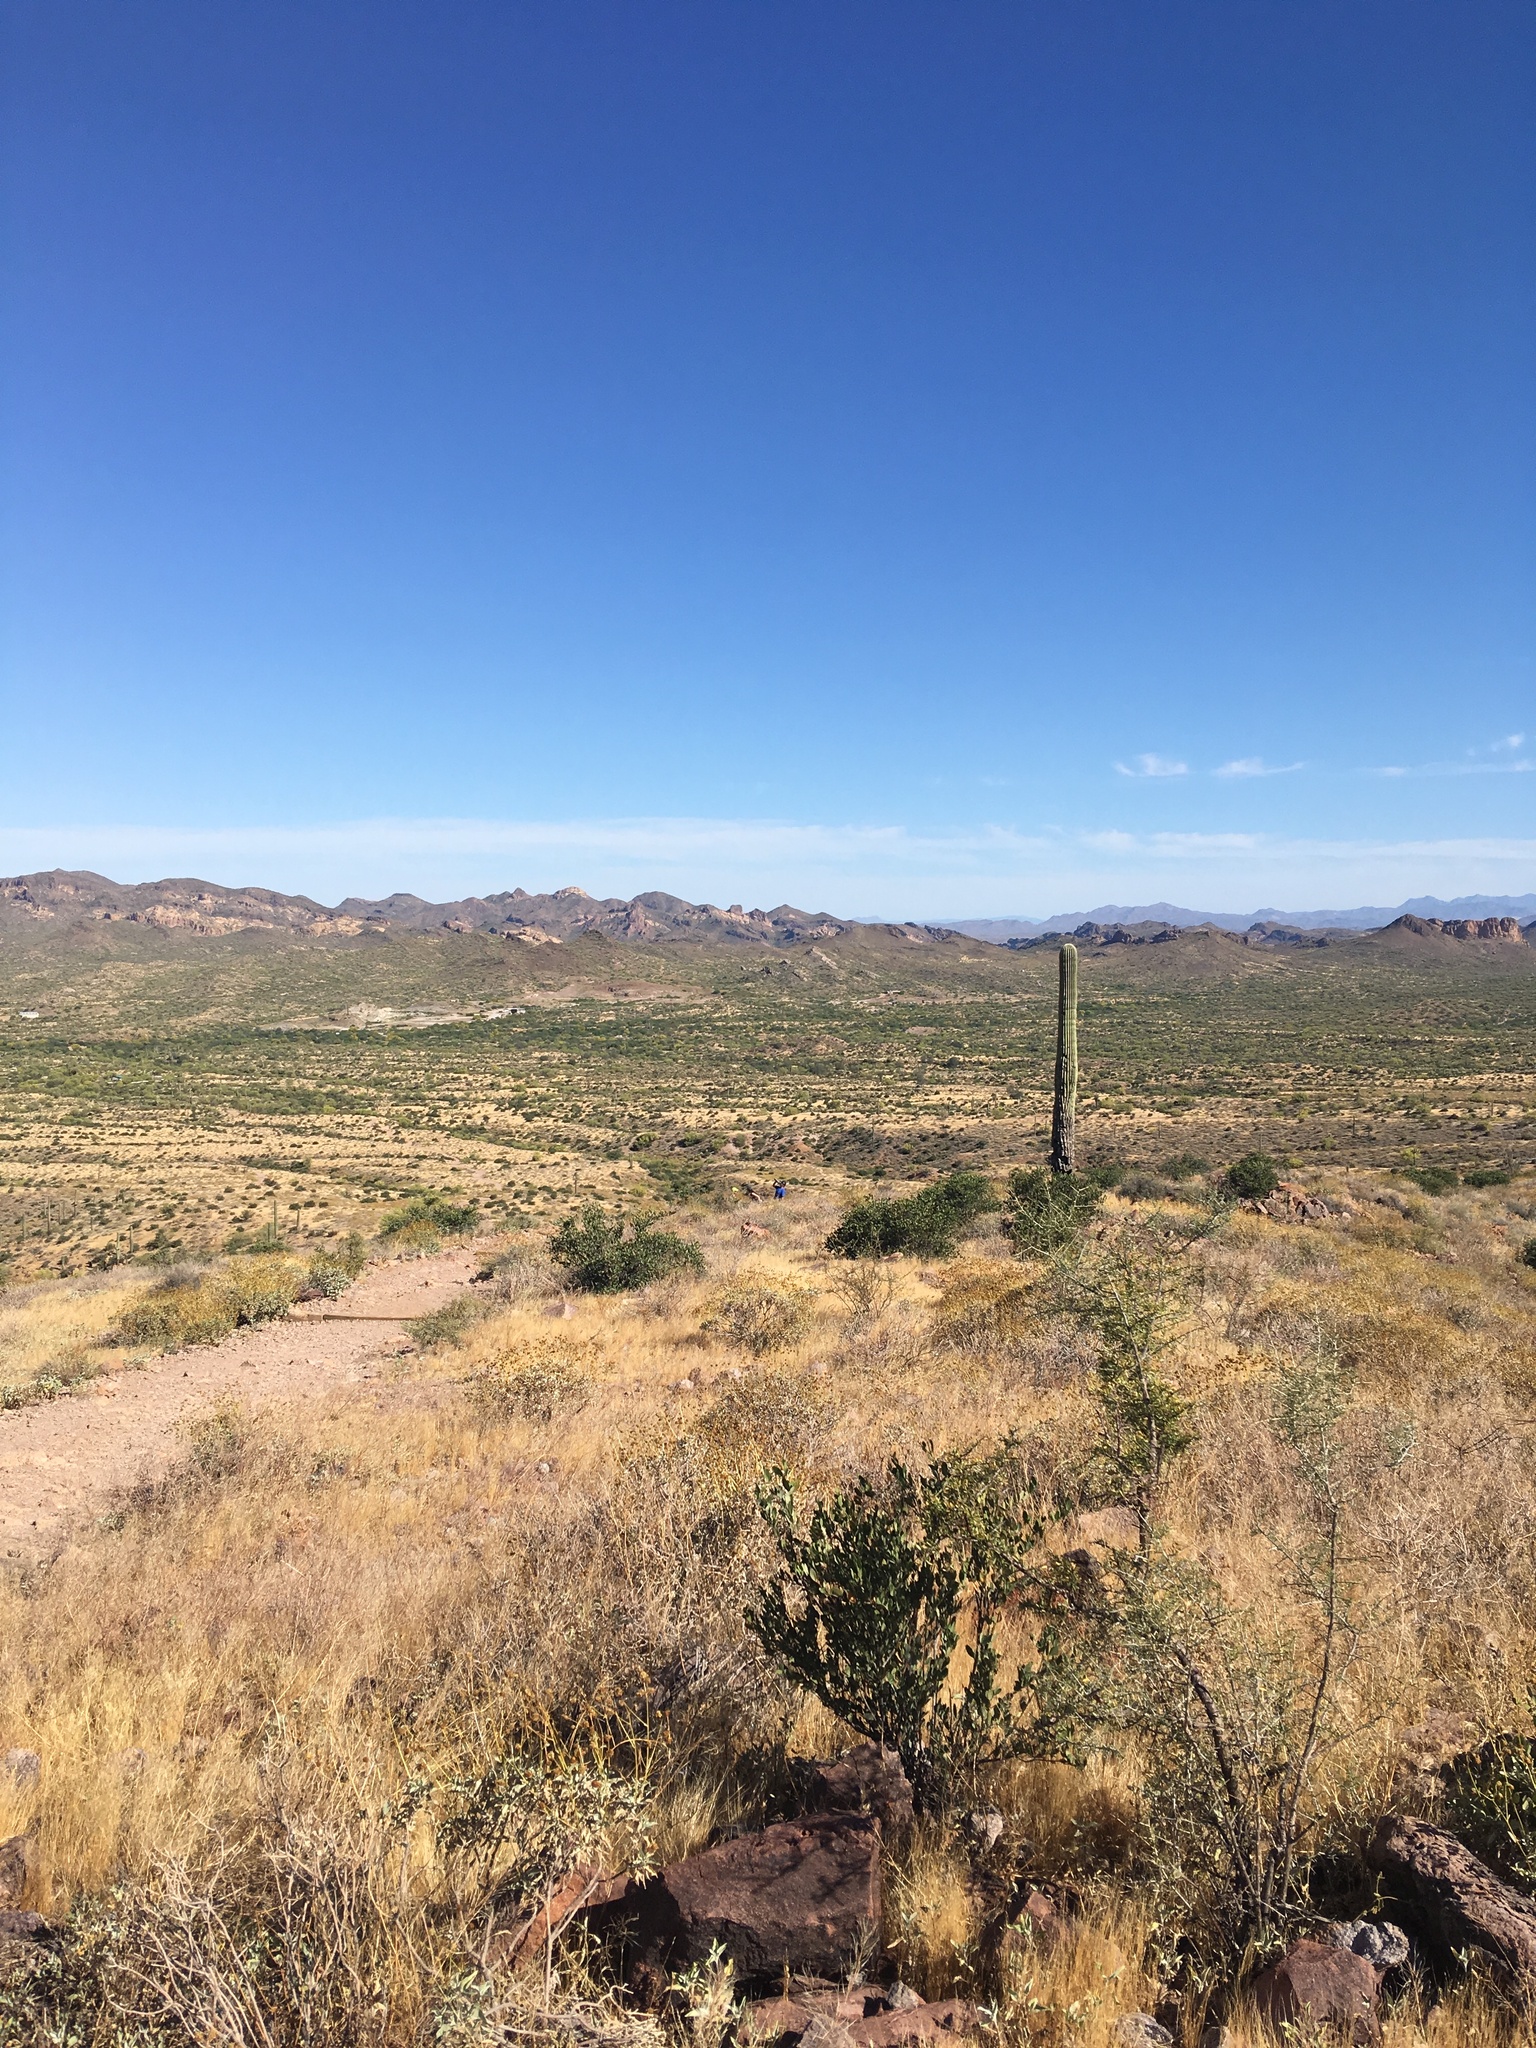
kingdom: Plantae
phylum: Tracheophyta
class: Magnoliopsida
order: Caryophyllales
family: Cactaceae
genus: Carnegiea
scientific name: Carnegiea gigantea
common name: Saguaro
